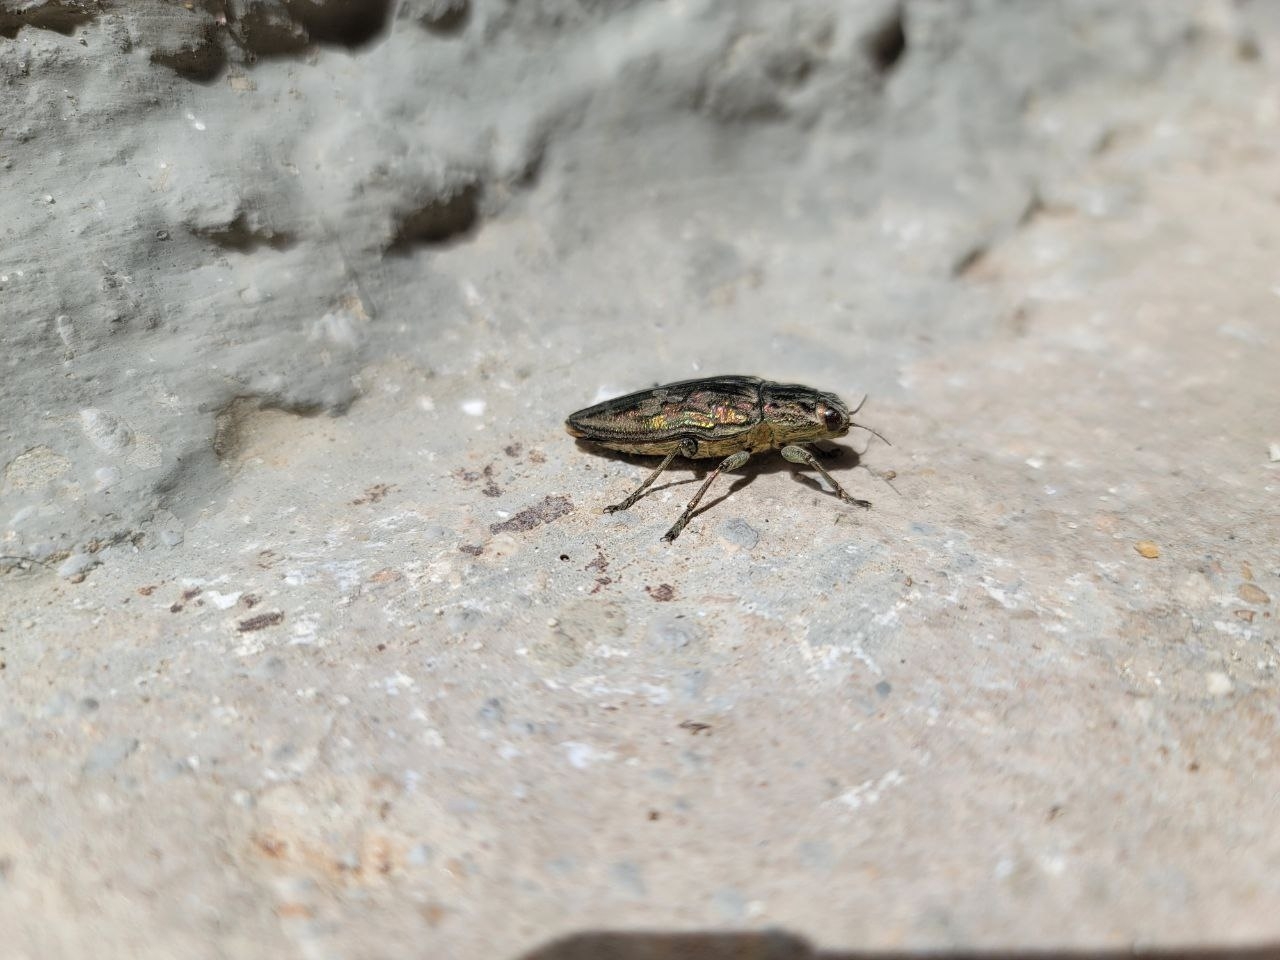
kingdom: Animalia
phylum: Arthropoda
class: Insecta
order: Coleoptera
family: Buprestidae
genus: Chalcophora
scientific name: Chalcophora massiliensis
